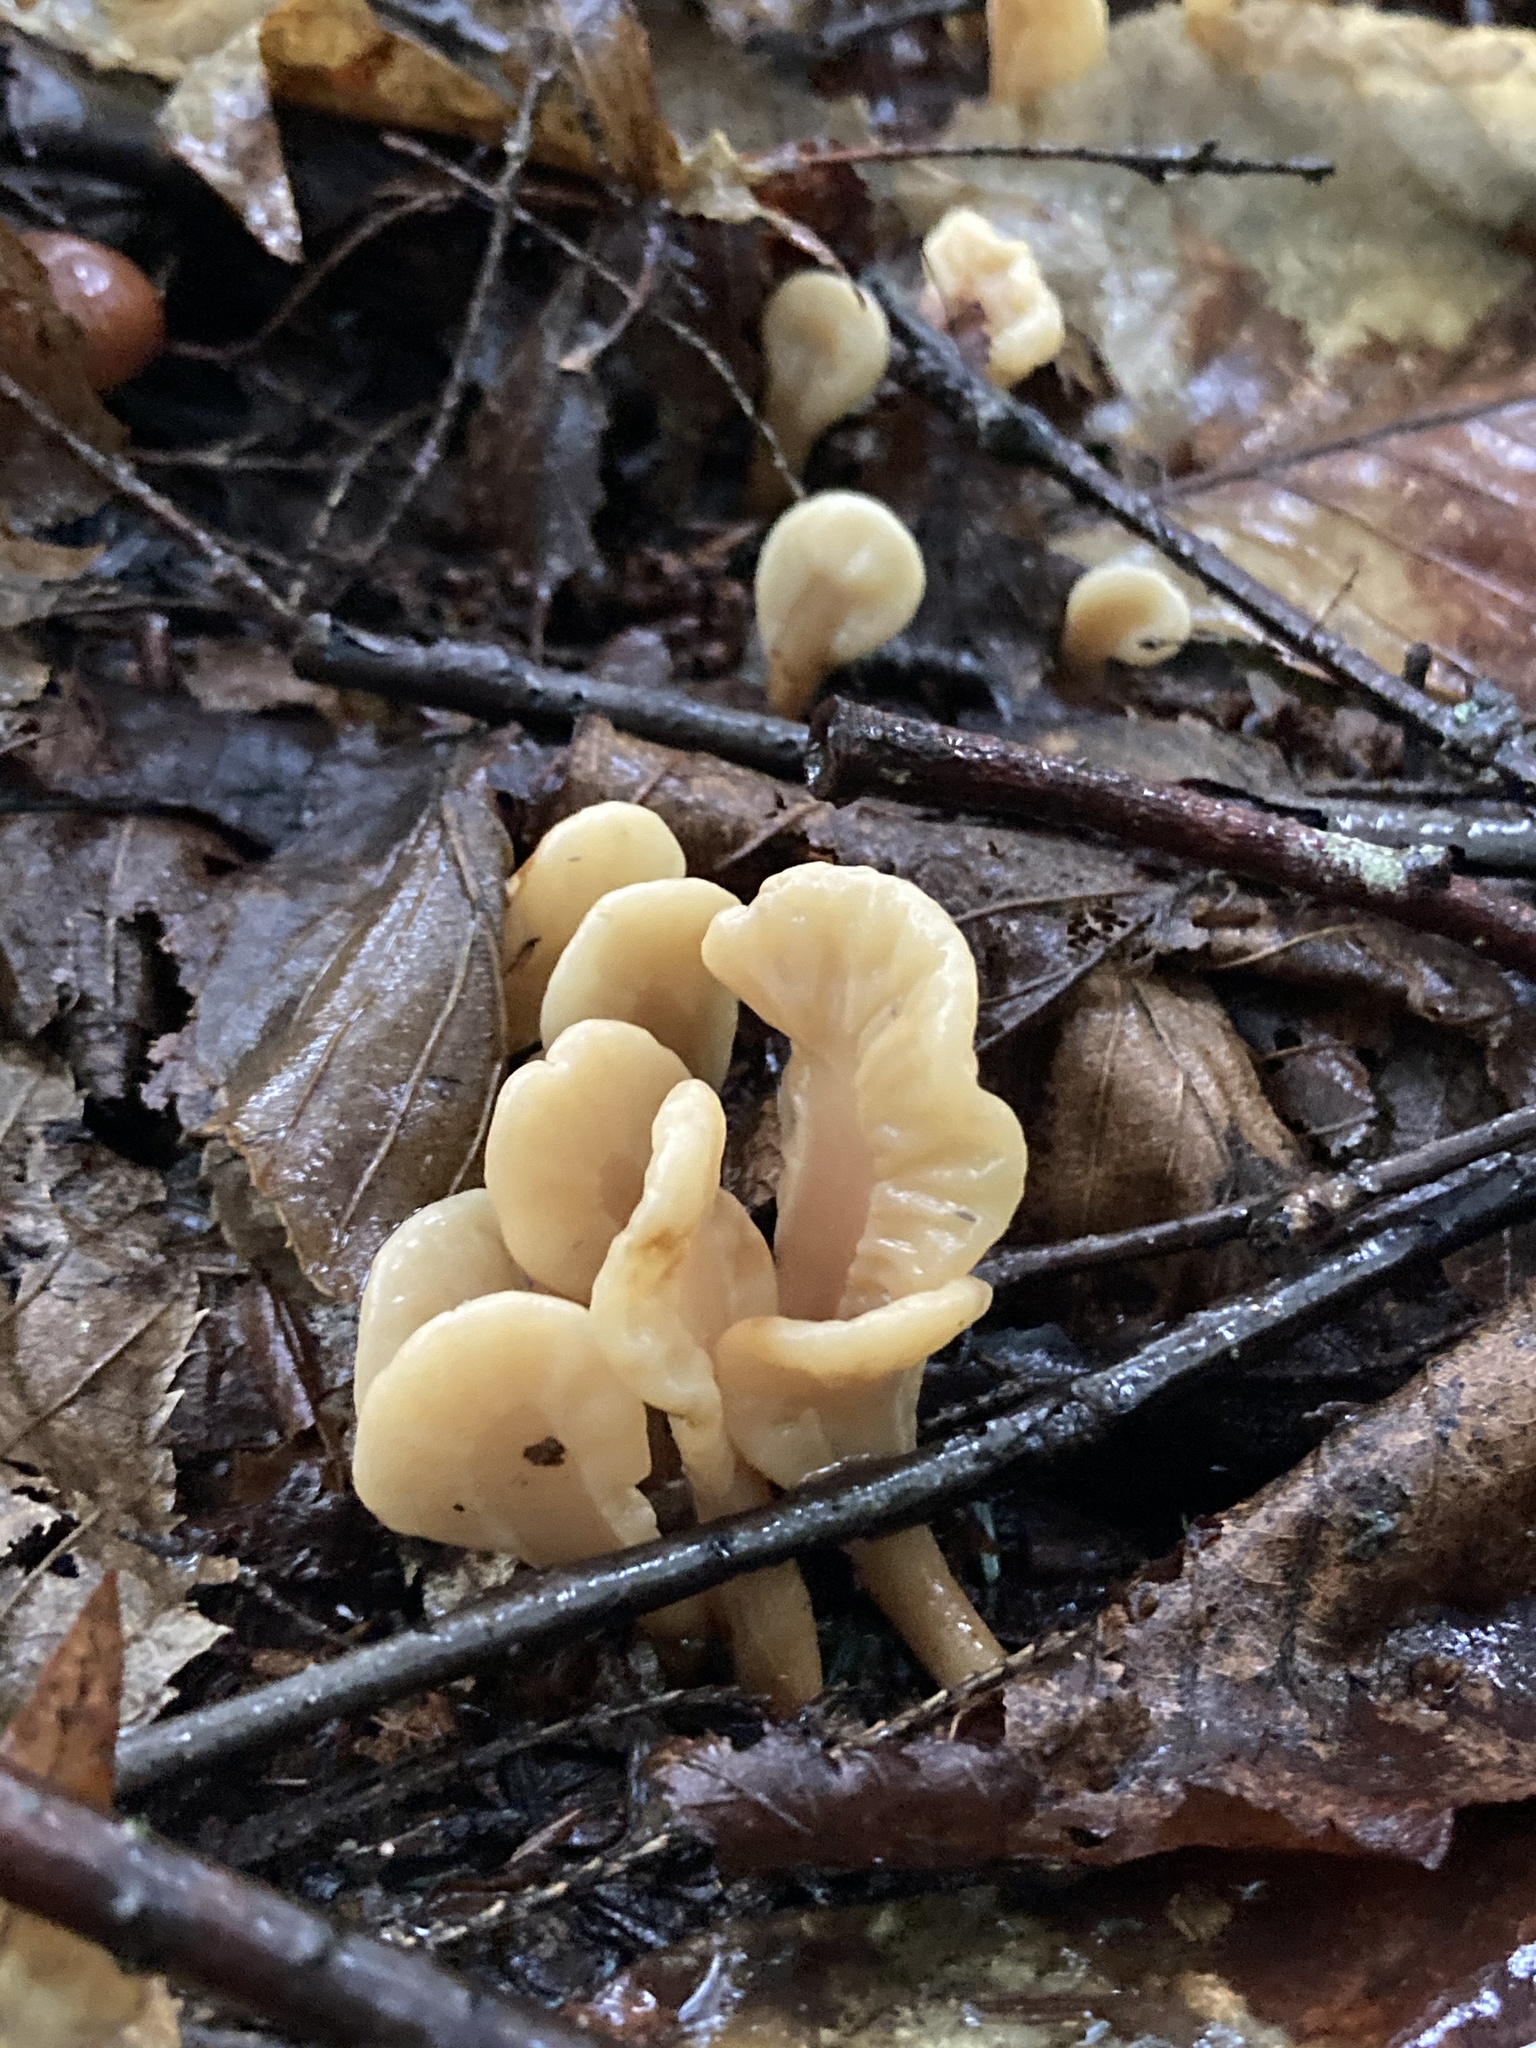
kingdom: Fungi
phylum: Ascomycota
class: Leotiomycetes
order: Rhytismatales
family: Cudoniaceae
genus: Spathulariopsis
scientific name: Spathulariopsis velutipes
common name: Velvet-foot fairy fan
